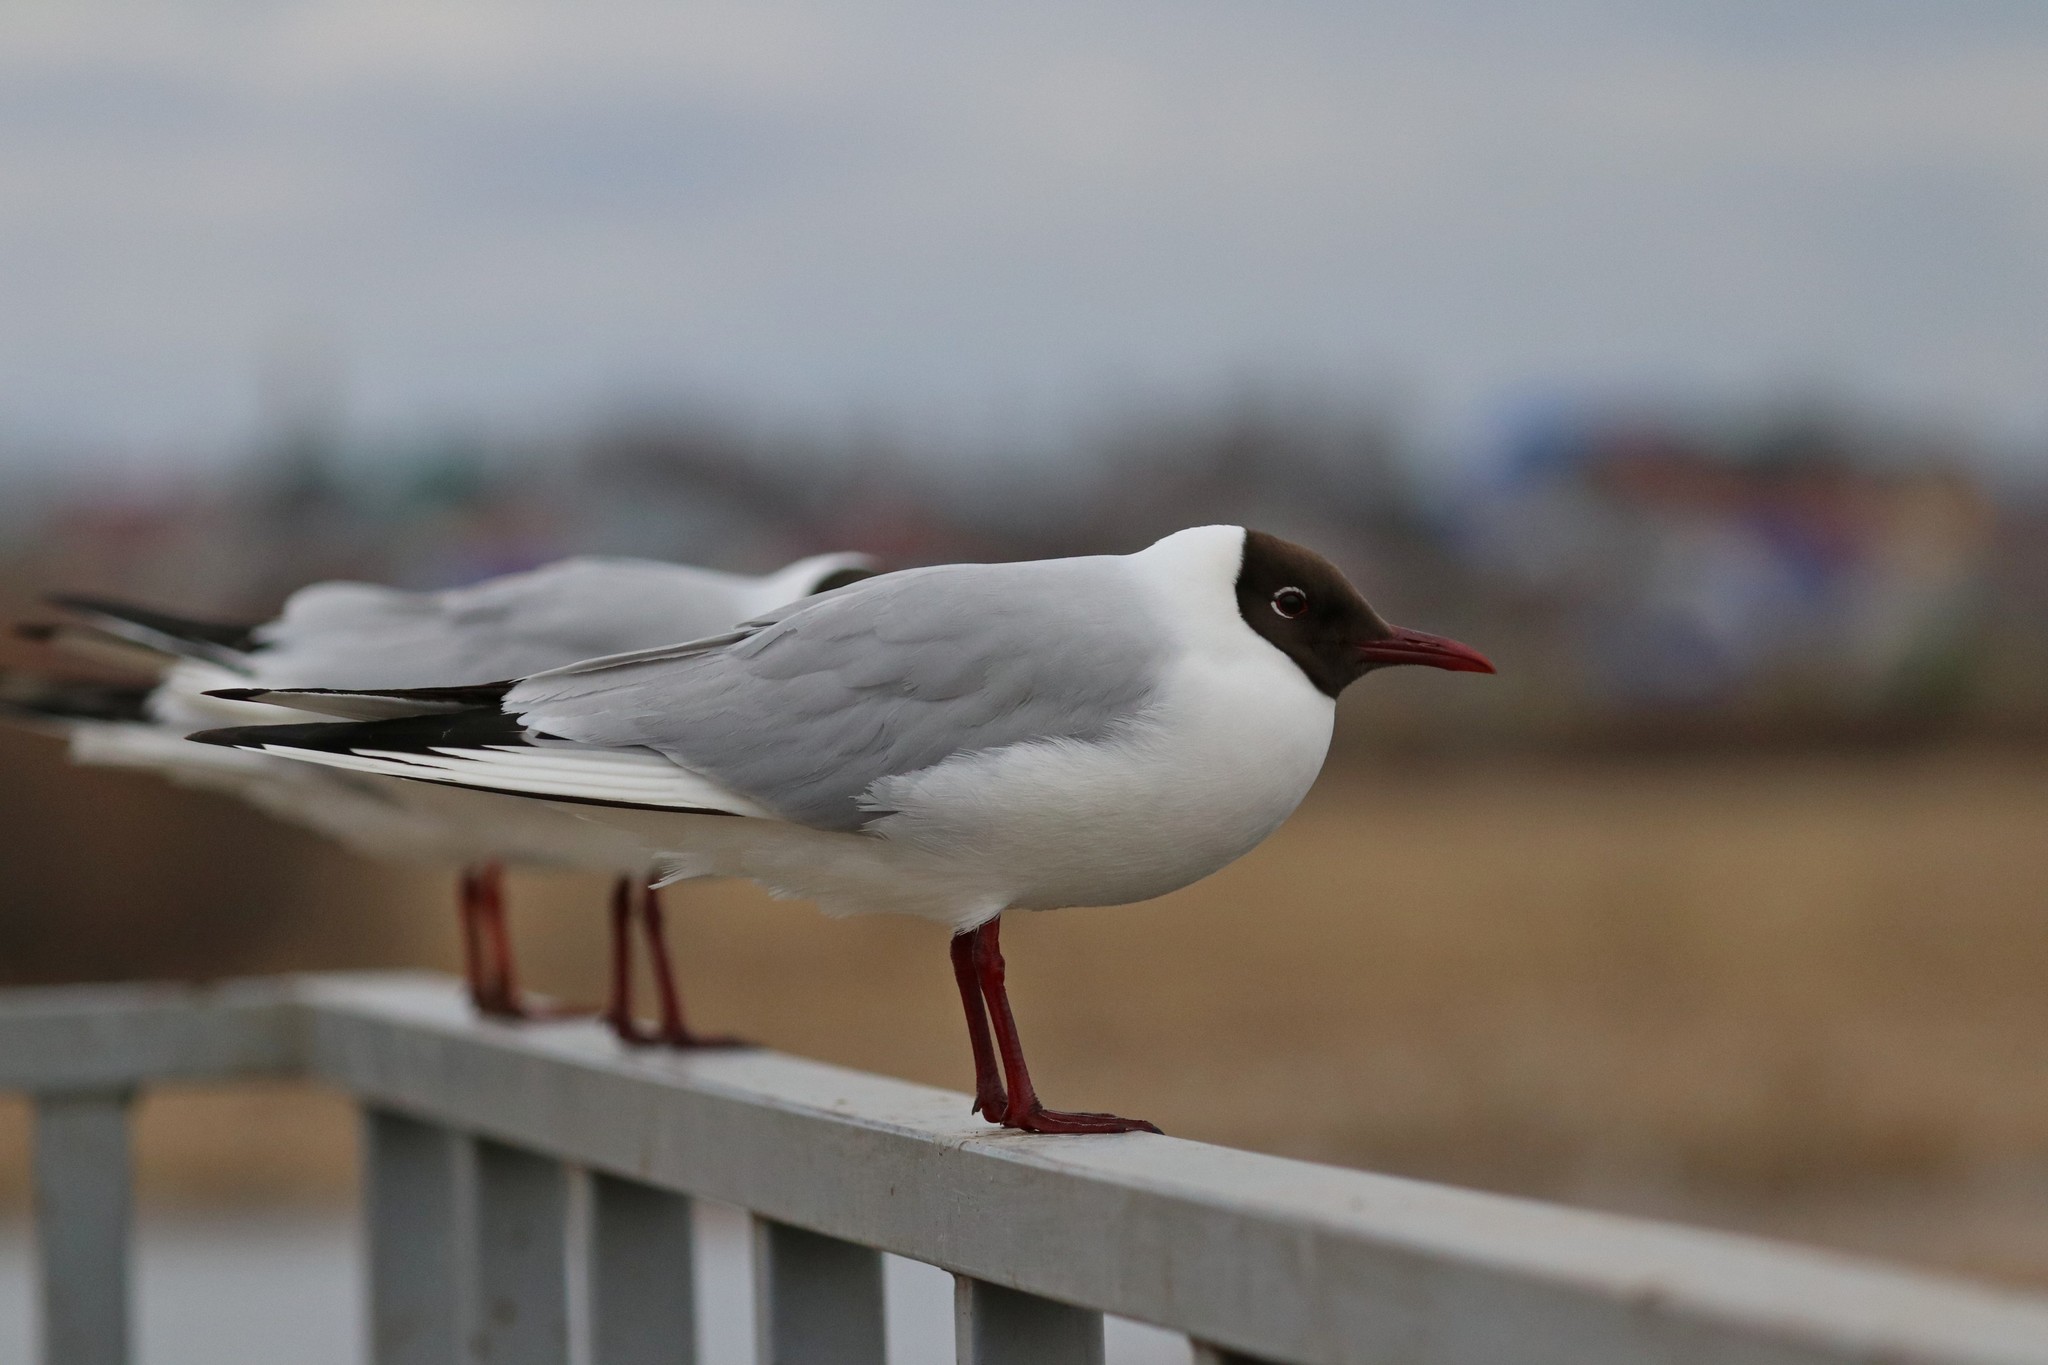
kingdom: Animalia
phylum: Chordata
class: Aves
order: Charadriiformes
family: Laridae
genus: Chroicocephalus
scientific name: Chroicocephalus ridibundus
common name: Black-headed gull
